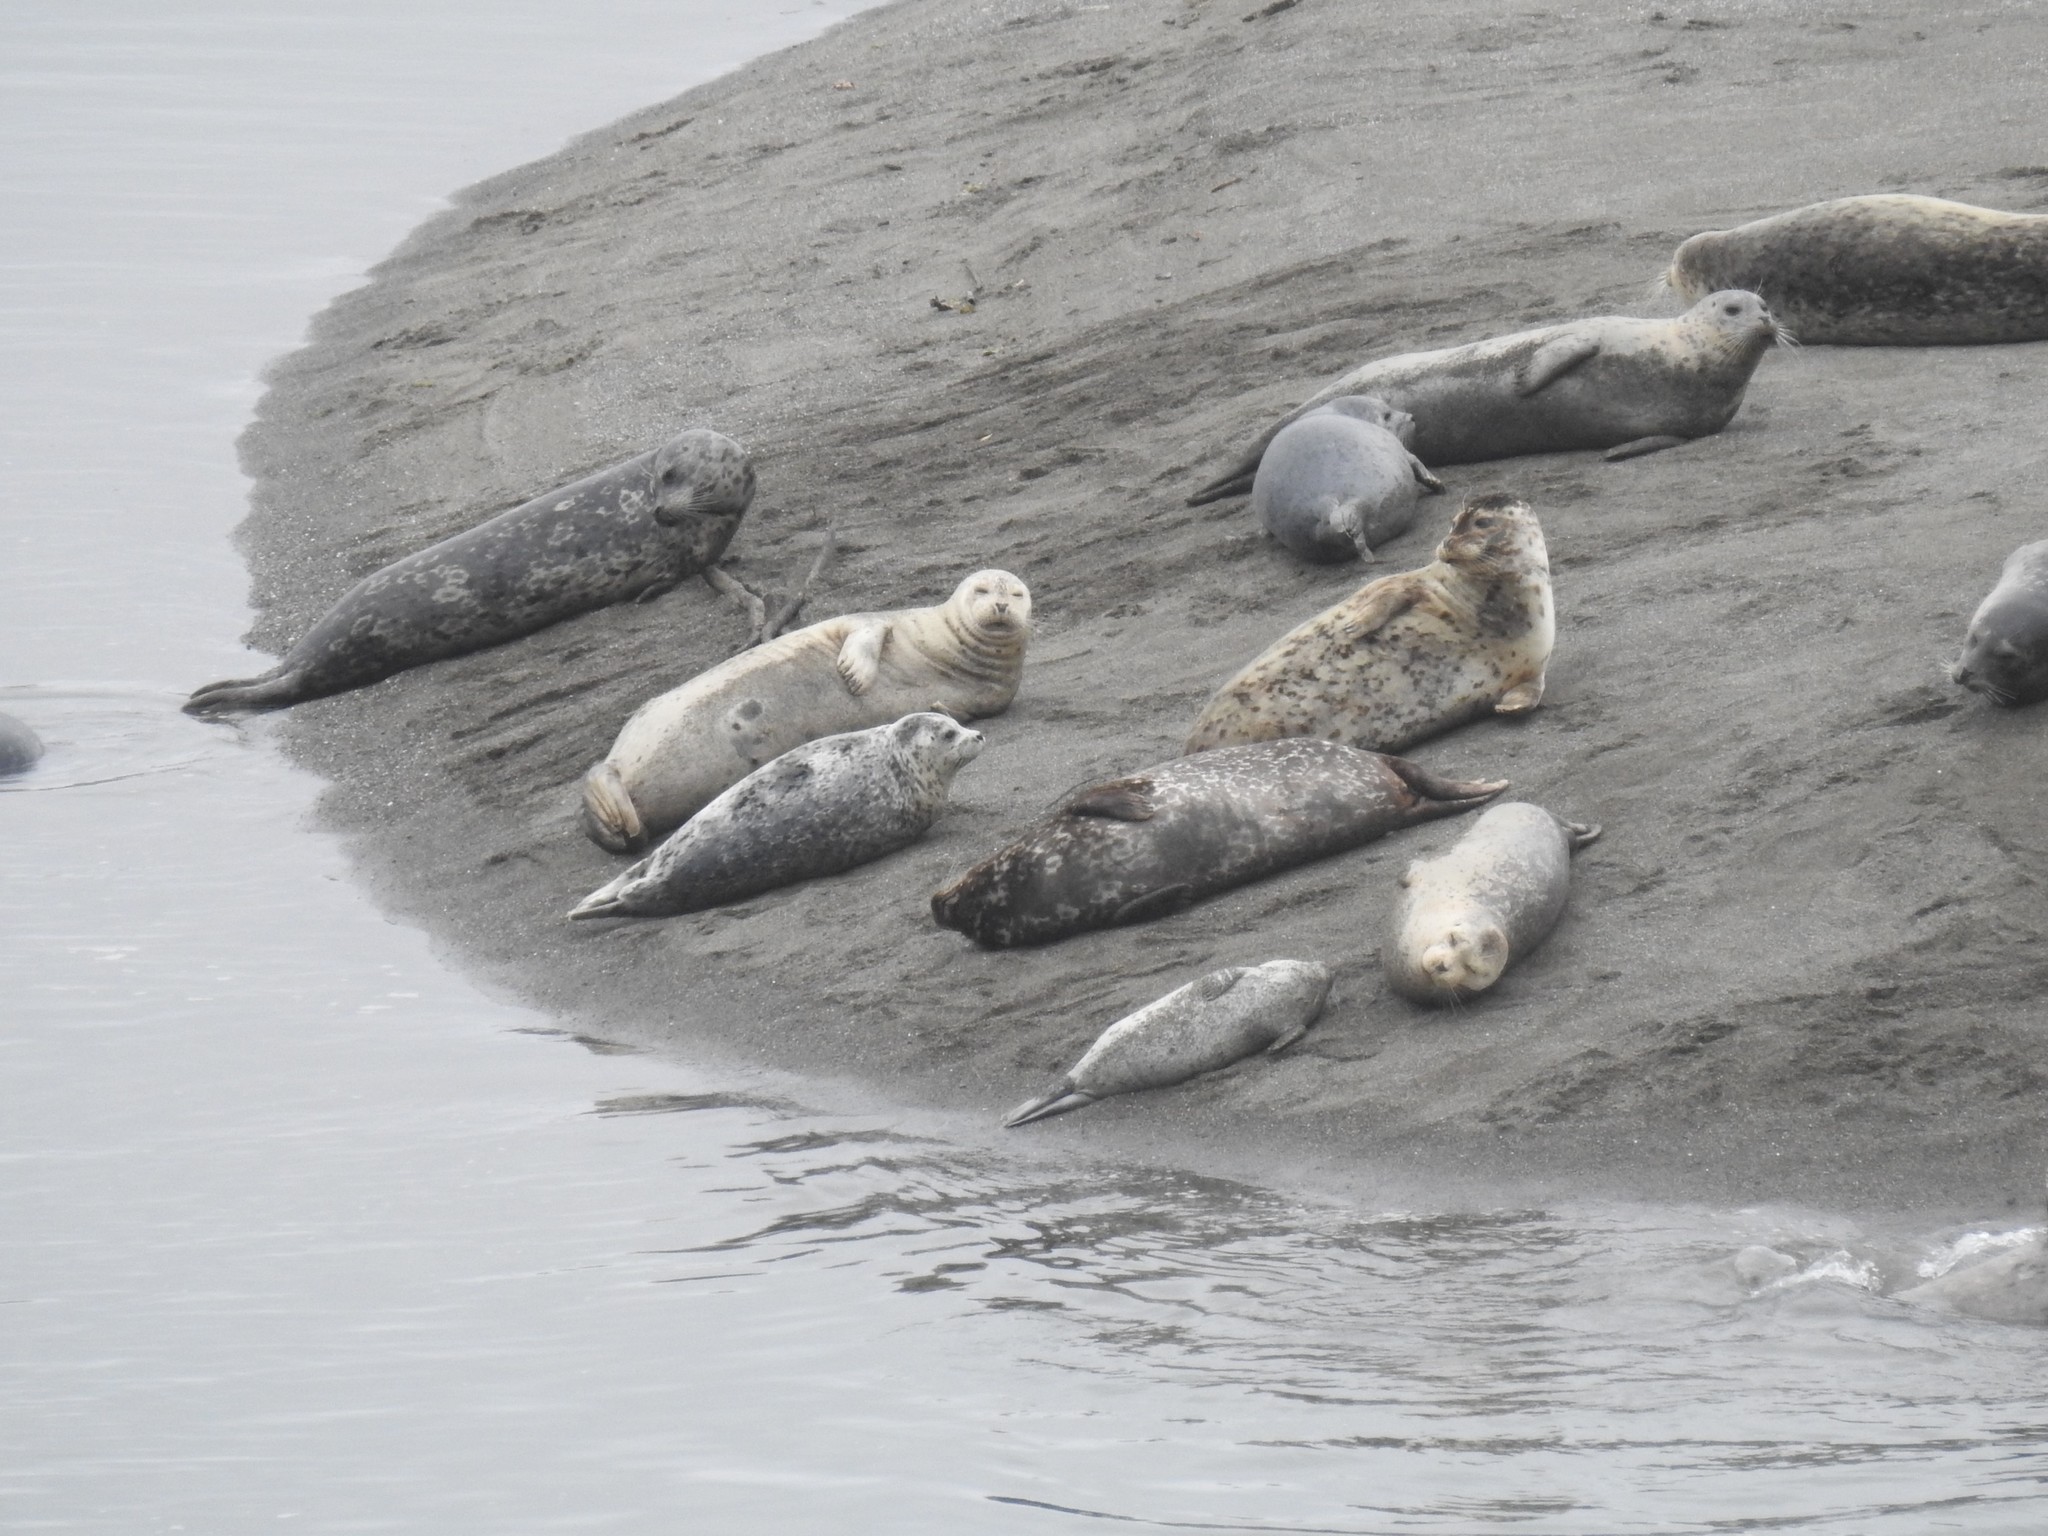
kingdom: Animalia
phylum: Chordata
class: Mammalia
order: Carnivora
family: Phocidae
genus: Phoca
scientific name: Phoca vitulina
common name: Harbor seal
